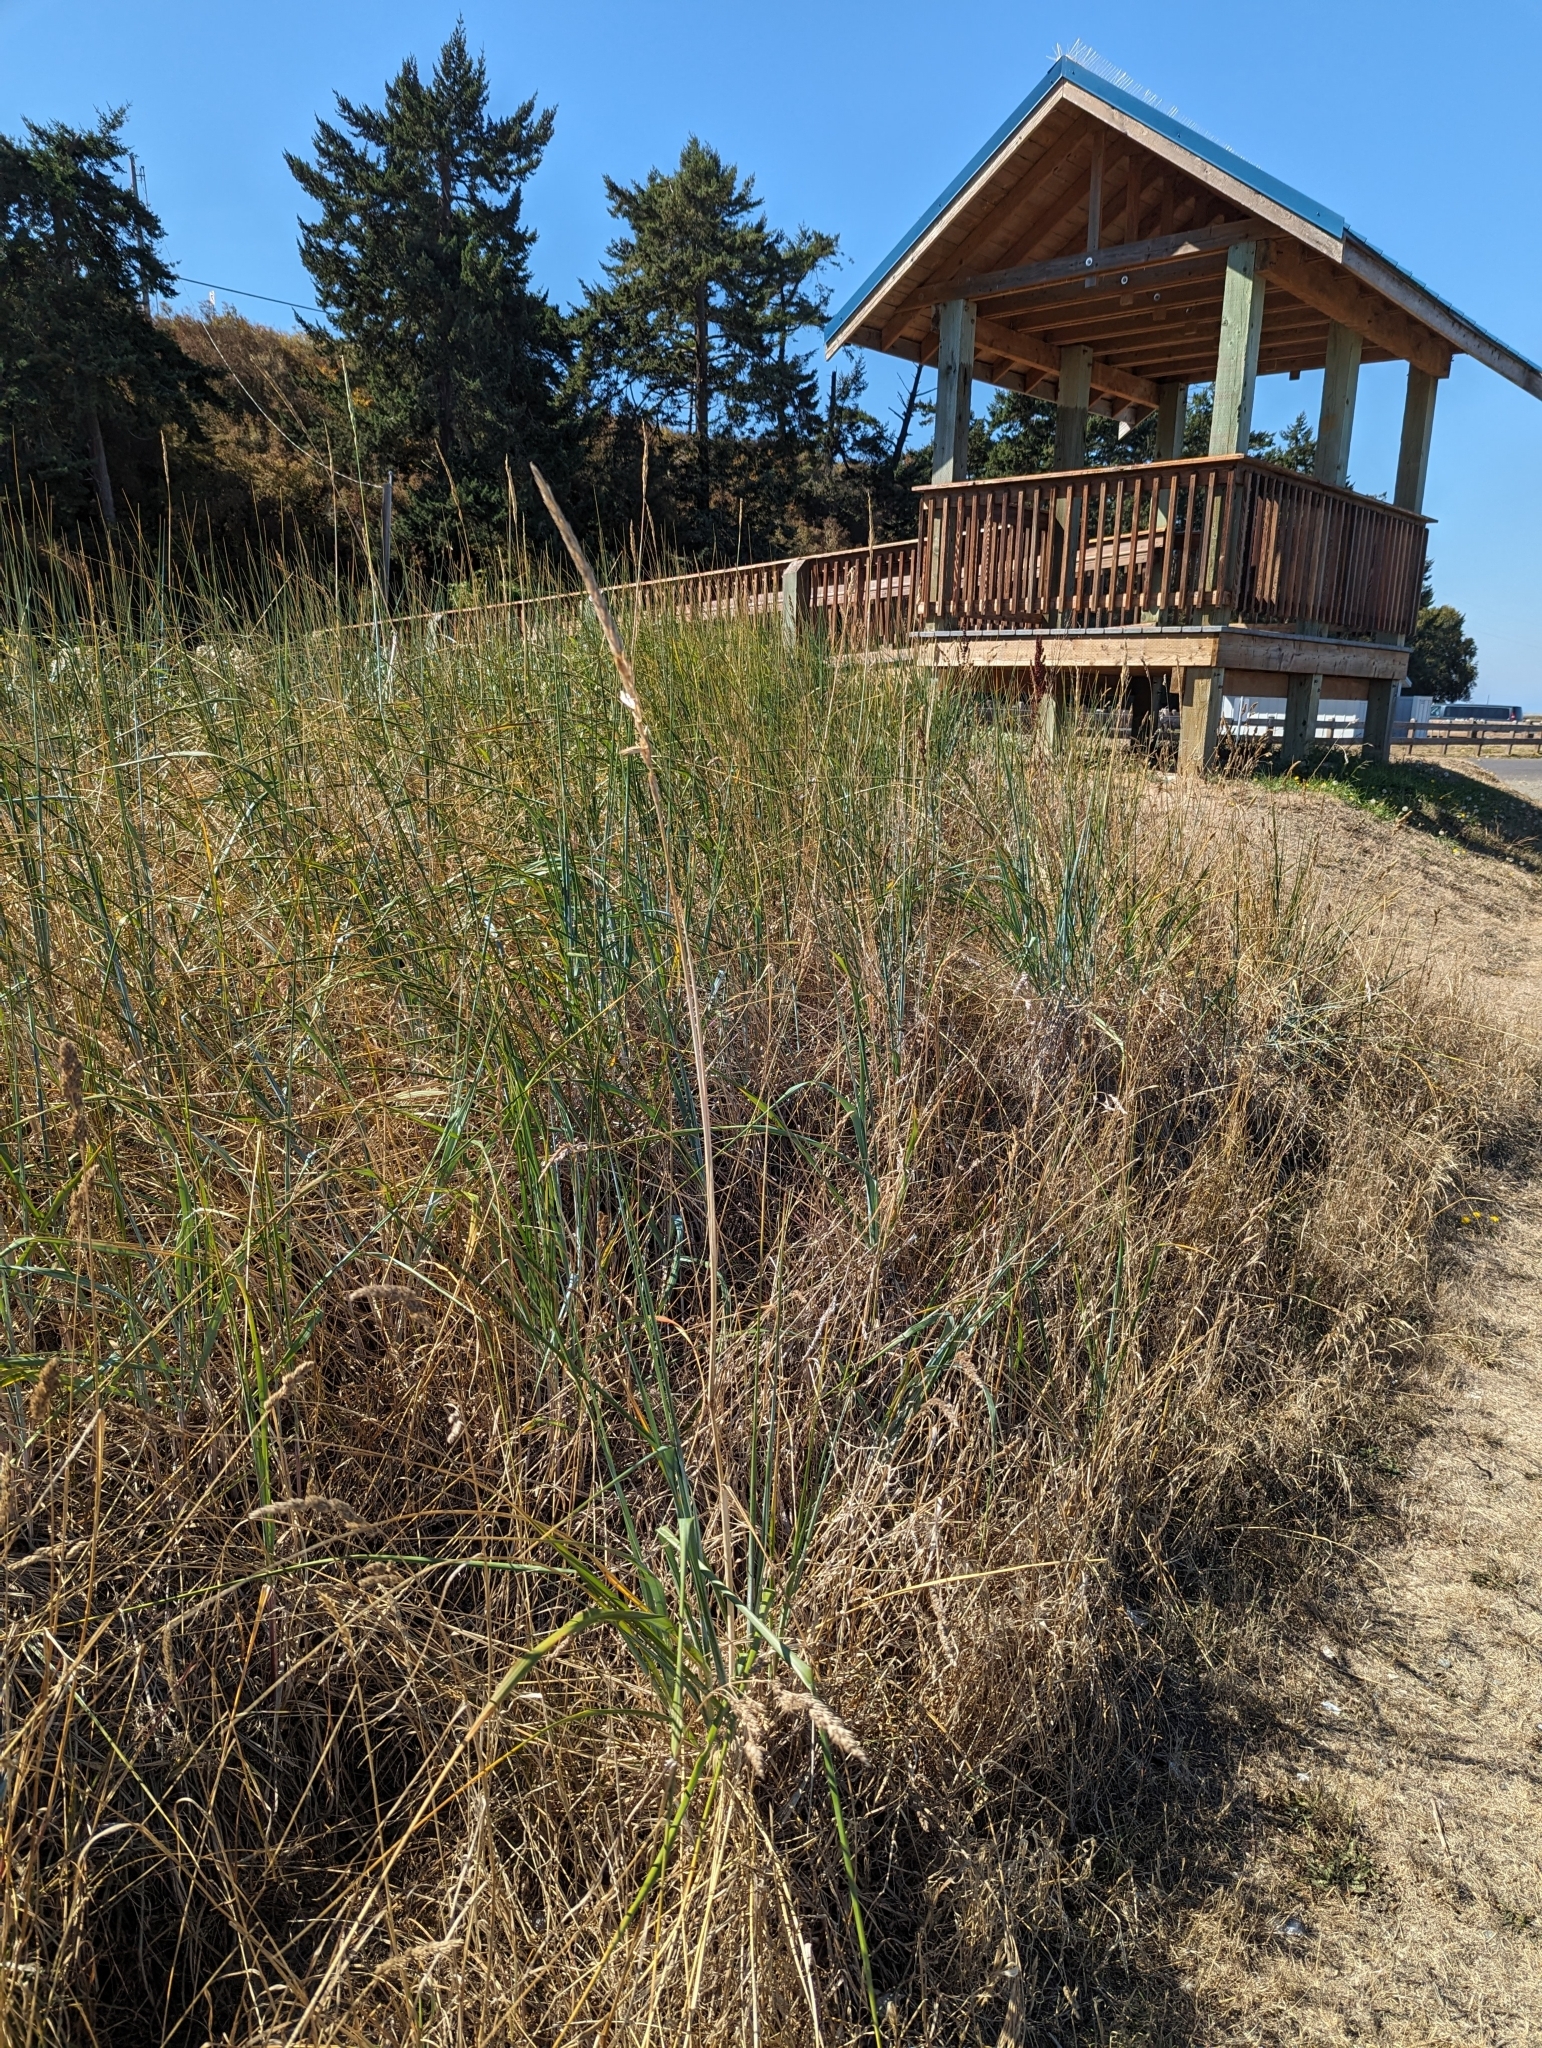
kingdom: Plantae
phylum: Tracheophyta
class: Liliopsida
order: Poales
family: Poaceae
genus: Leymus
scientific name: Leymus mollis
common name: American dune grass
